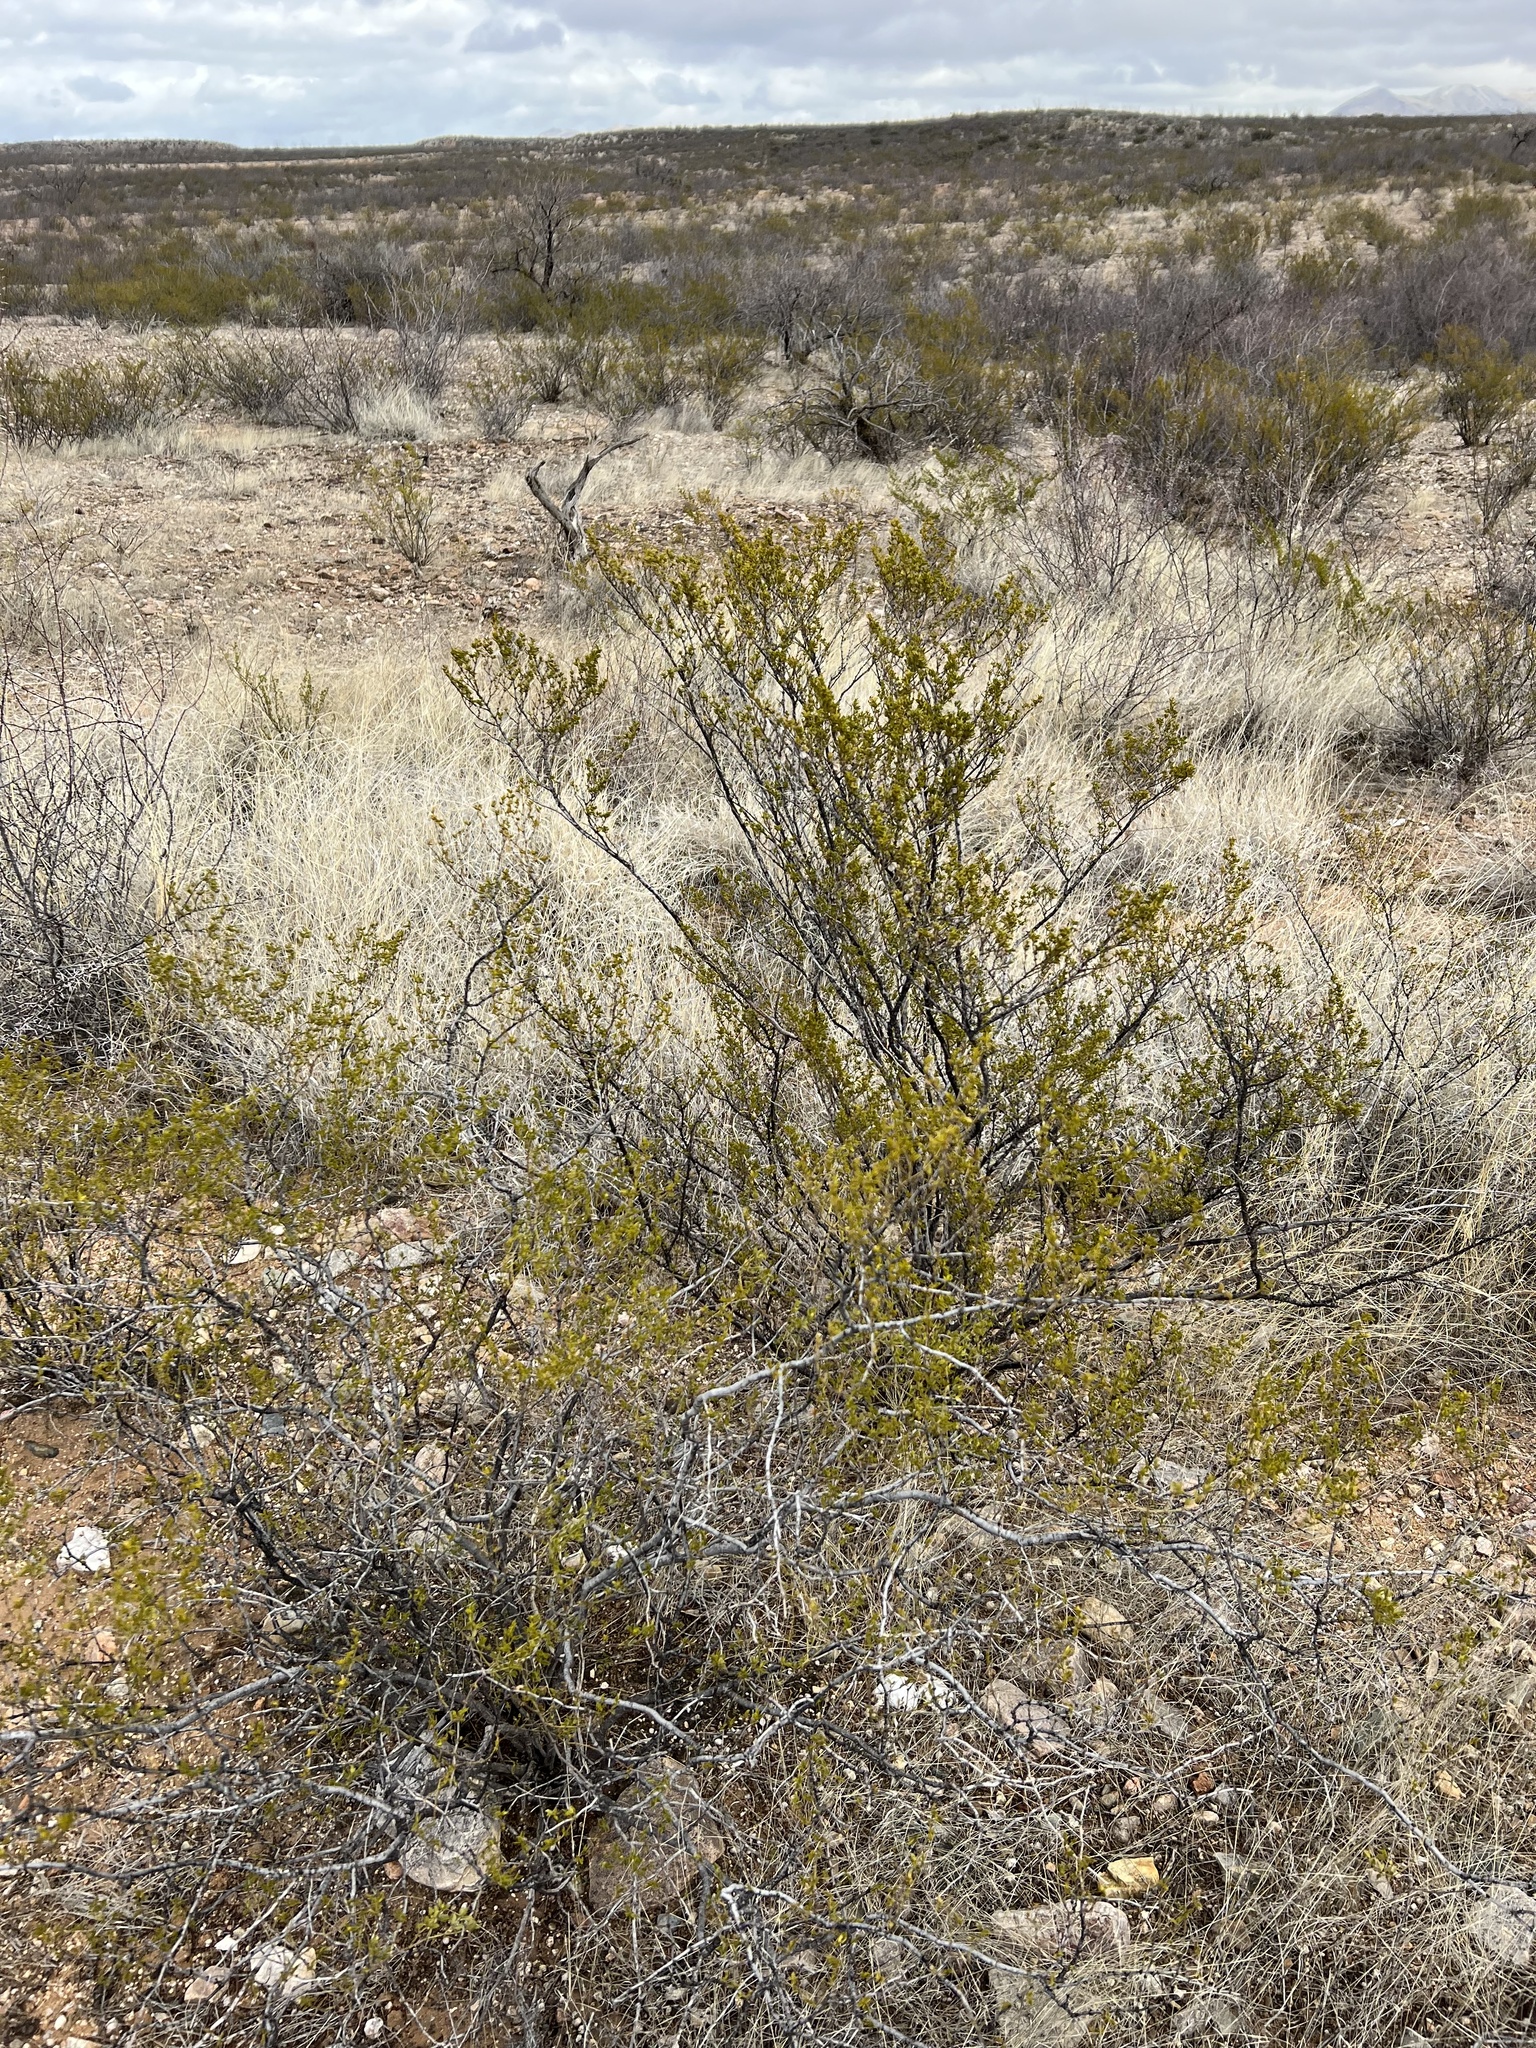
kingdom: Plantae
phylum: Tracheophyta
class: Magnoliopsida
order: Zygophyllales
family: Zygophyllaceae
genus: Larrea
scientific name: Larrea tridentata
